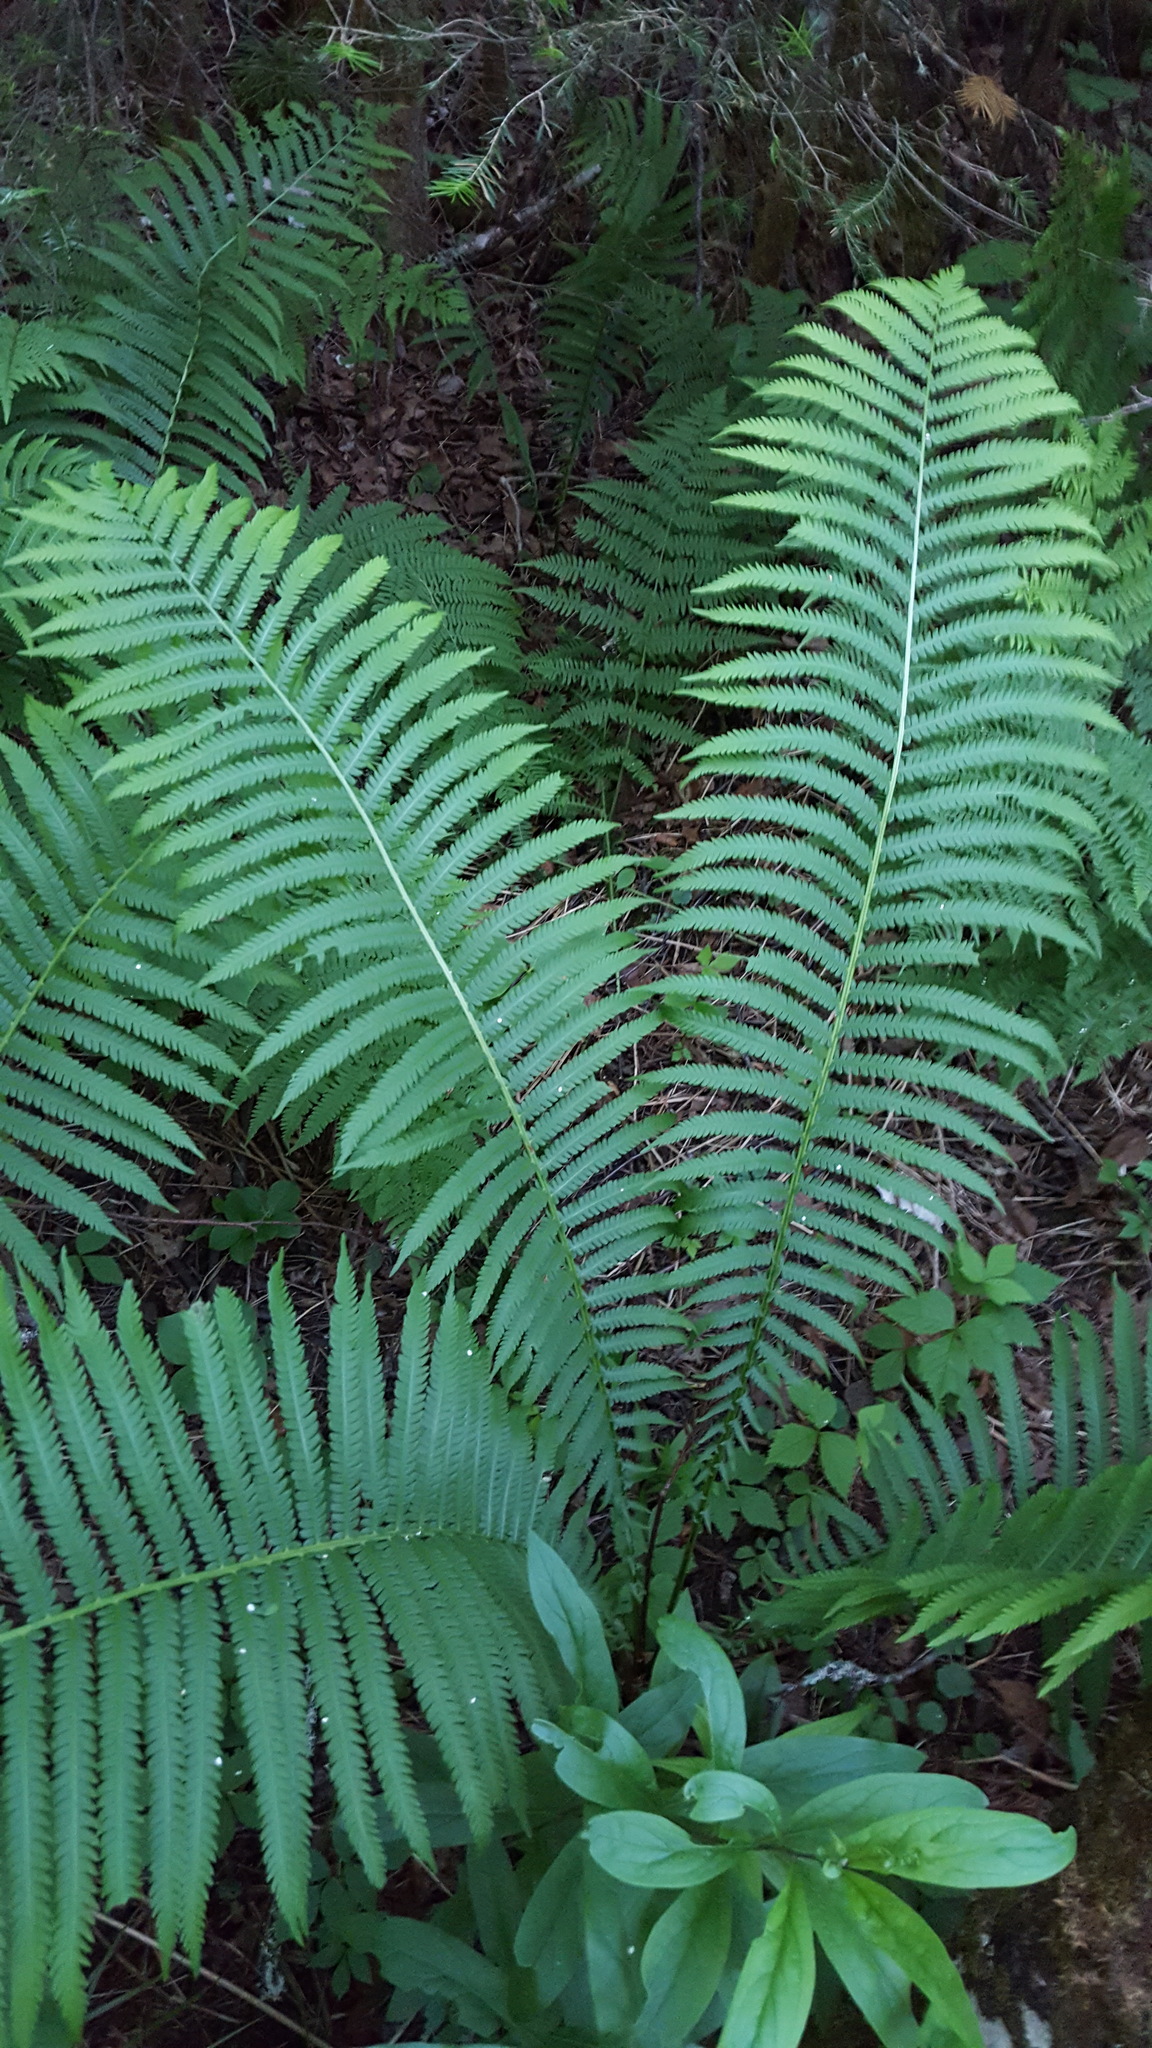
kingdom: Plantae
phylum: Tracheophyta
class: Polypodiopsida
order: Polypodiales
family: Onocleaceae
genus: Matteuccia
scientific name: Matteuccia struthiopteris
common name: Ostrich fern
